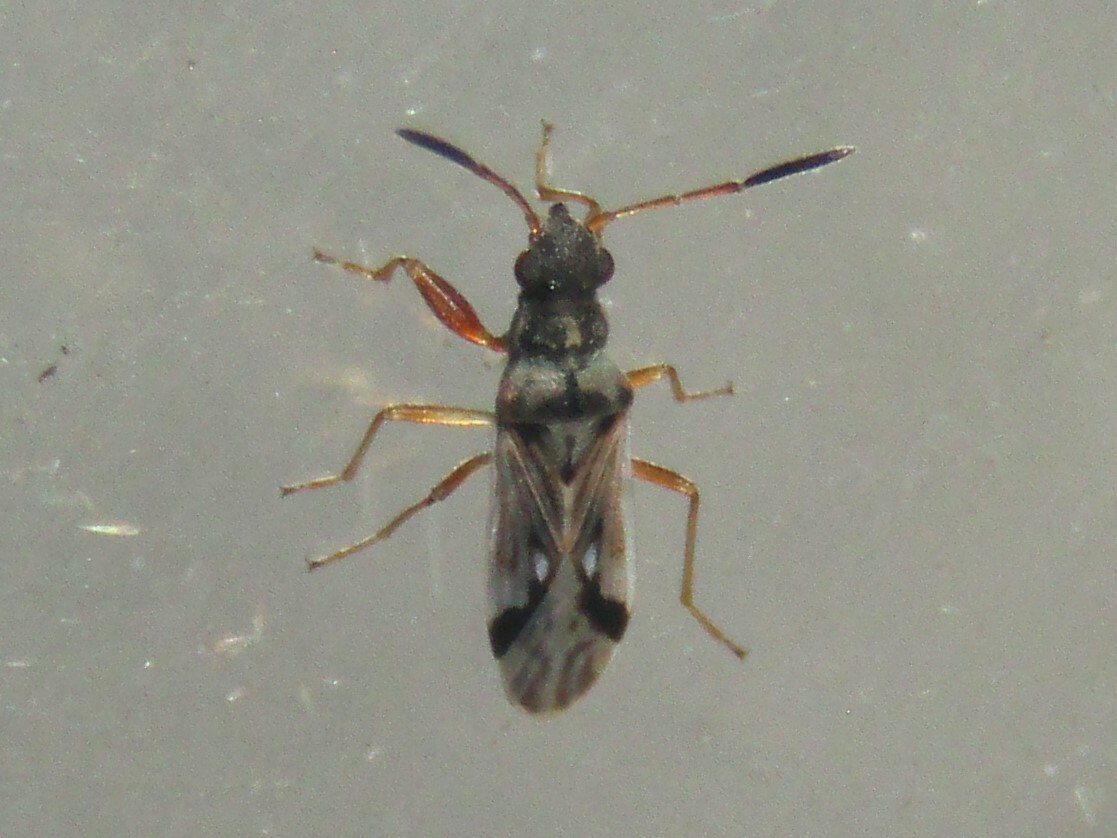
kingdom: Animalia
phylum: Arthropoda
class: Insecta
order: Hemiptera
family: Rhyparochromidae
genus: Pseudopachybrachius
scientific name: Pseudopachybrachius vinctus
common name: Dirt-colored seed bug
